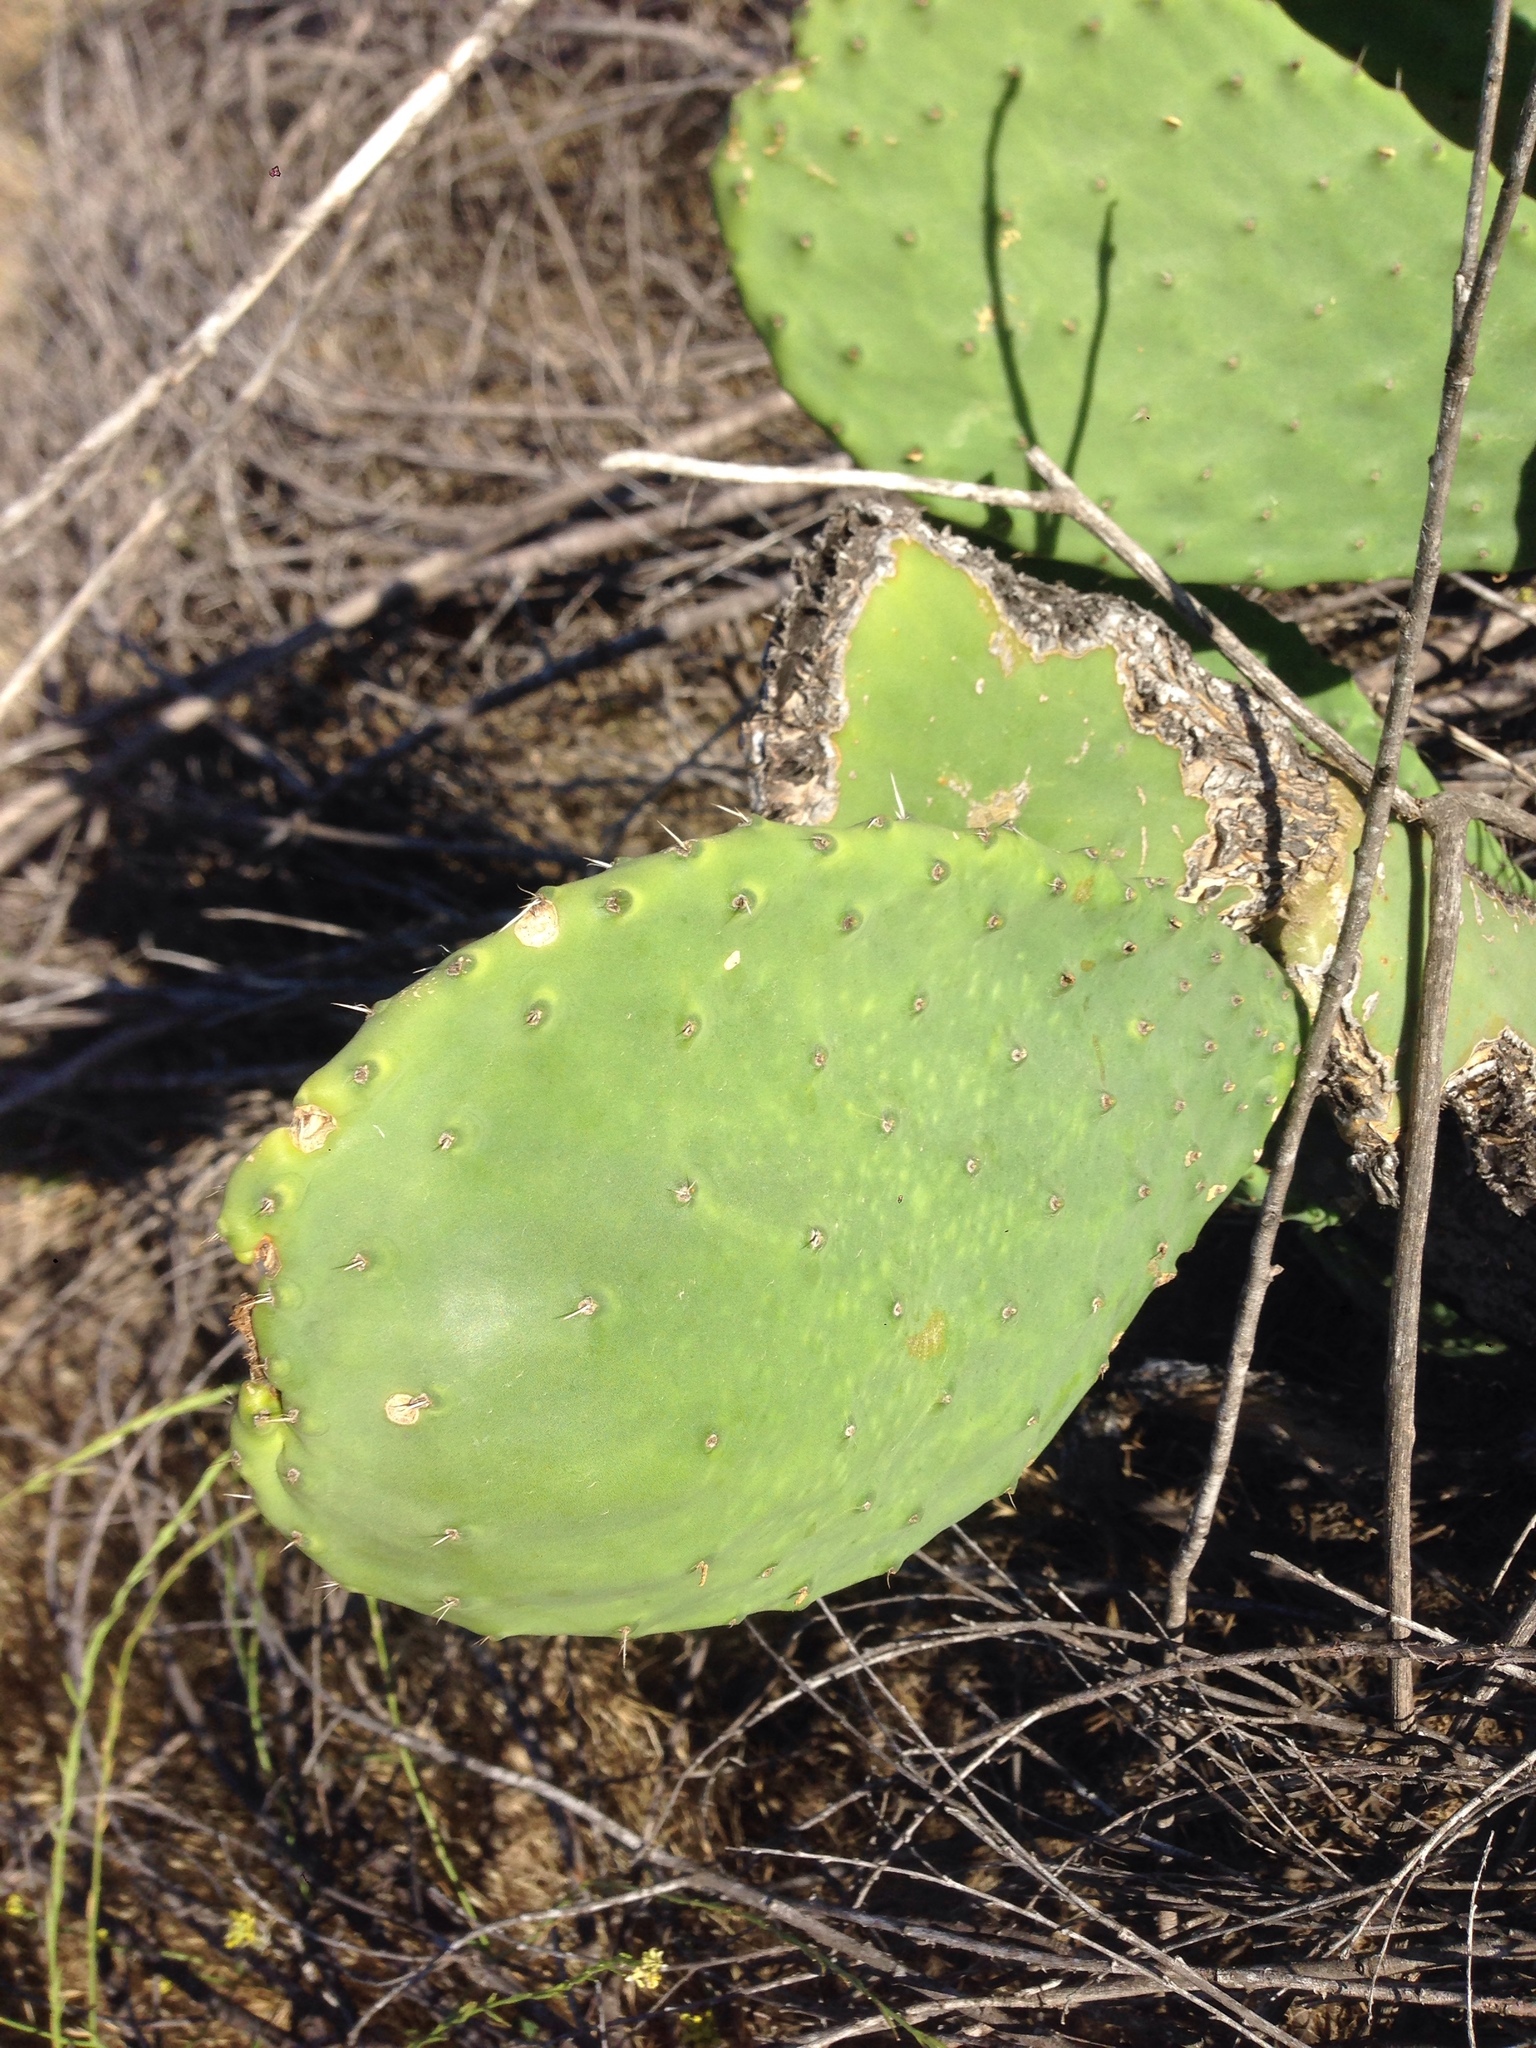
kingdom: Plantae
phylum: Tracheophyta
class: Magnoliopsida
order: Caryophyllales
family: Cactaceae
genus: Opuntia
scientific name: Opuntia ficus-indica
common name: Barbary fig
